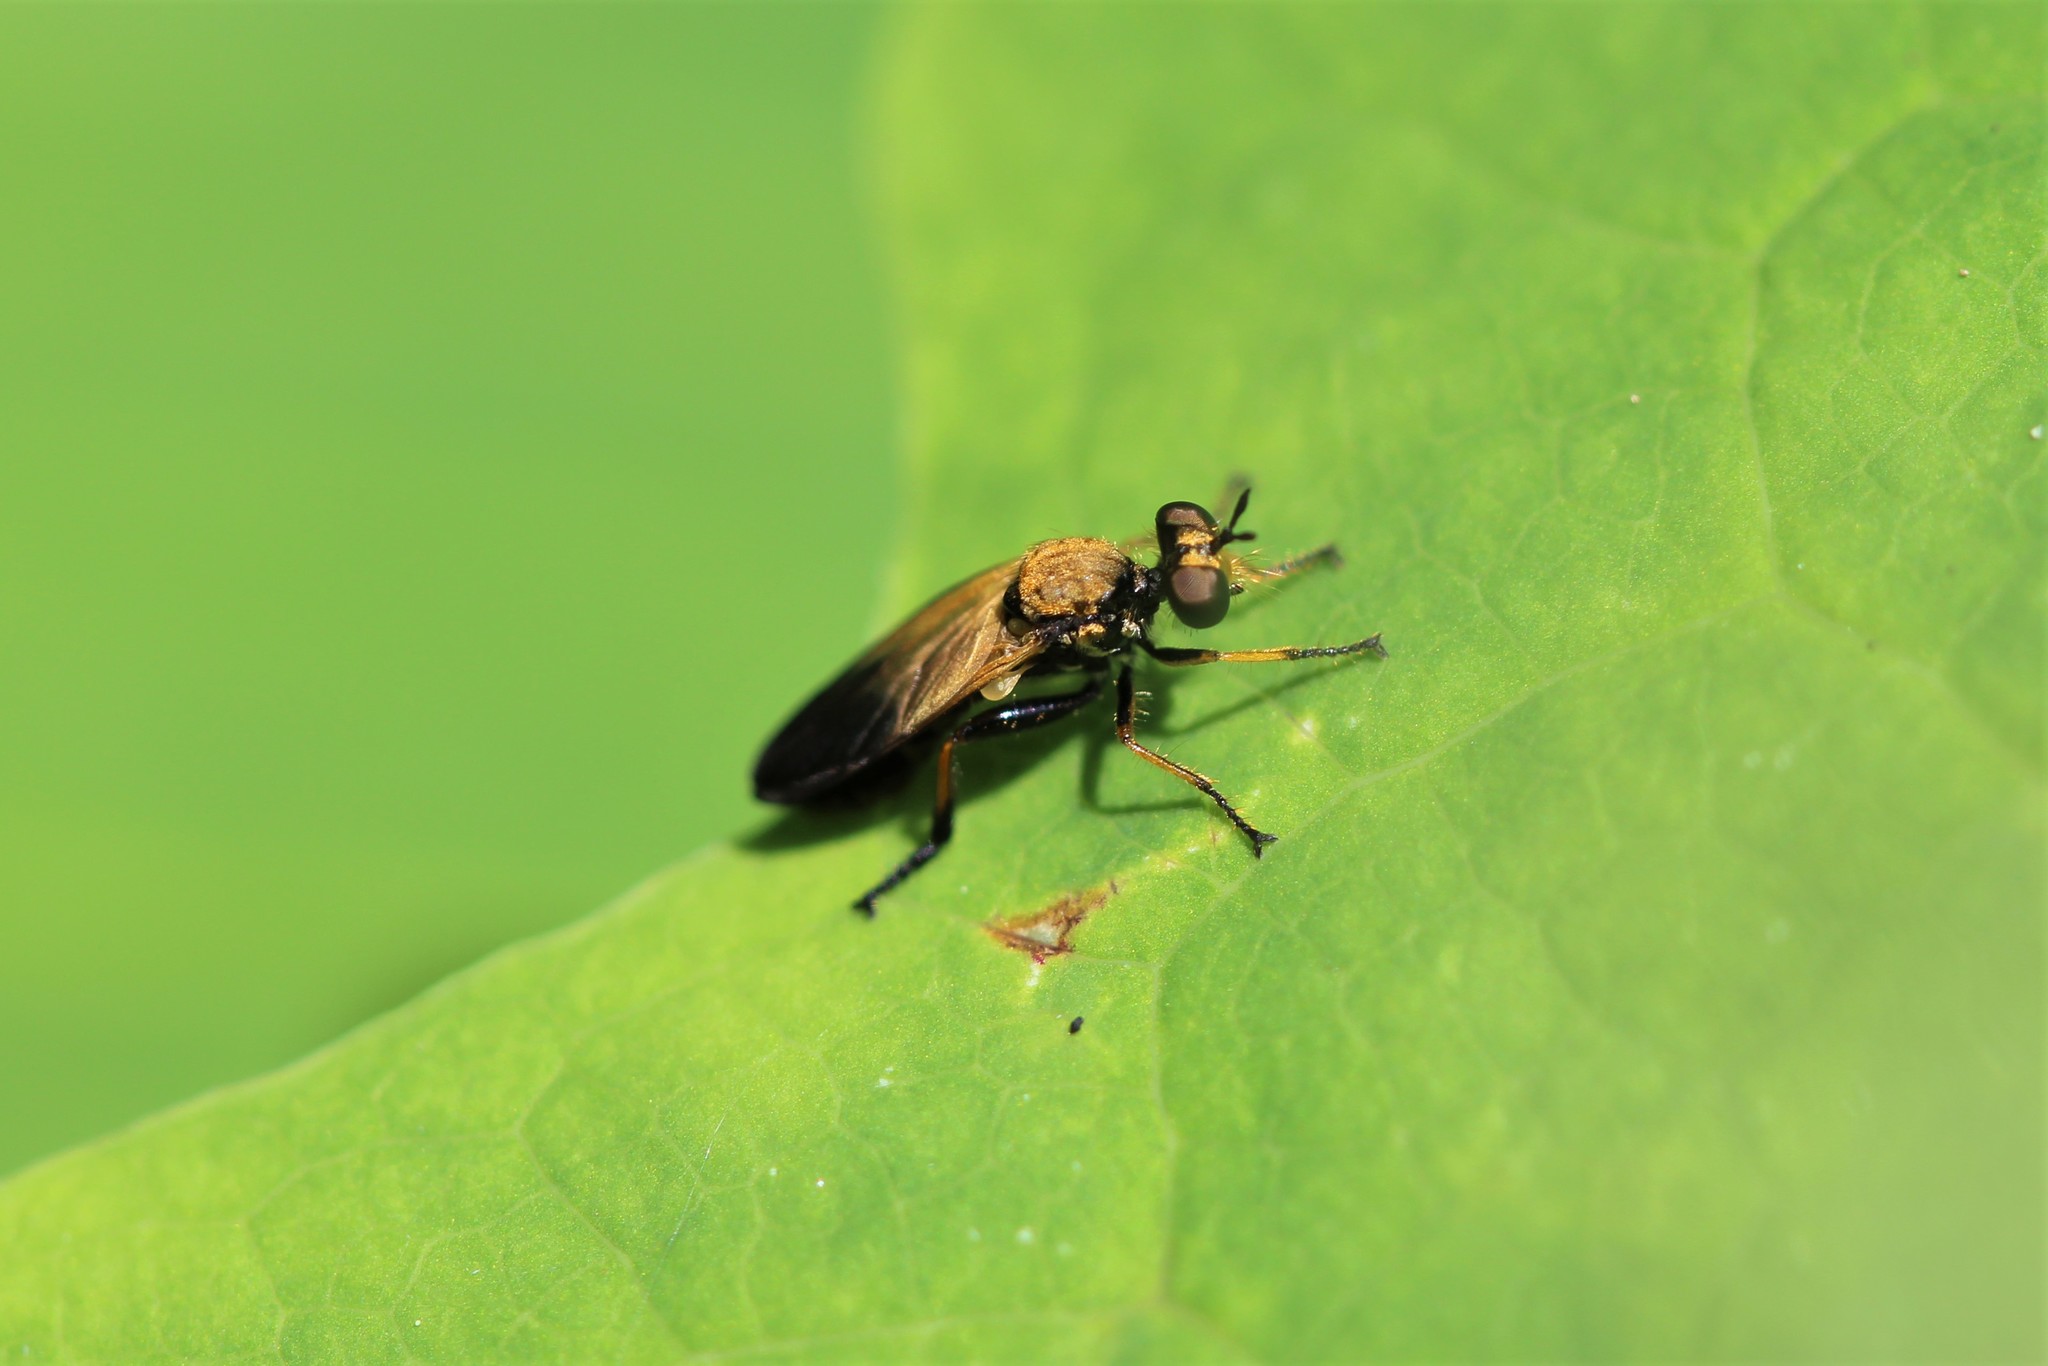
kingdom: Animalia
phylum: Arthropoda
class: Insecta
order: Diptera
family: Asilidae
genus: Eudioctria
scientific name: Eudioctria sackeni
